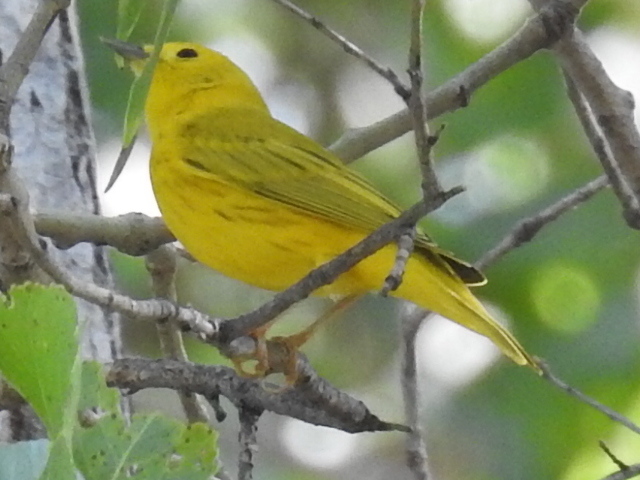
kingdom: Animalia
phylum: Chordata
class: Aves
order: Passeriformes
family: Parulidae
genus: Setophaga
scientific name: Setophaga petechia
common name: Yellow warbler
